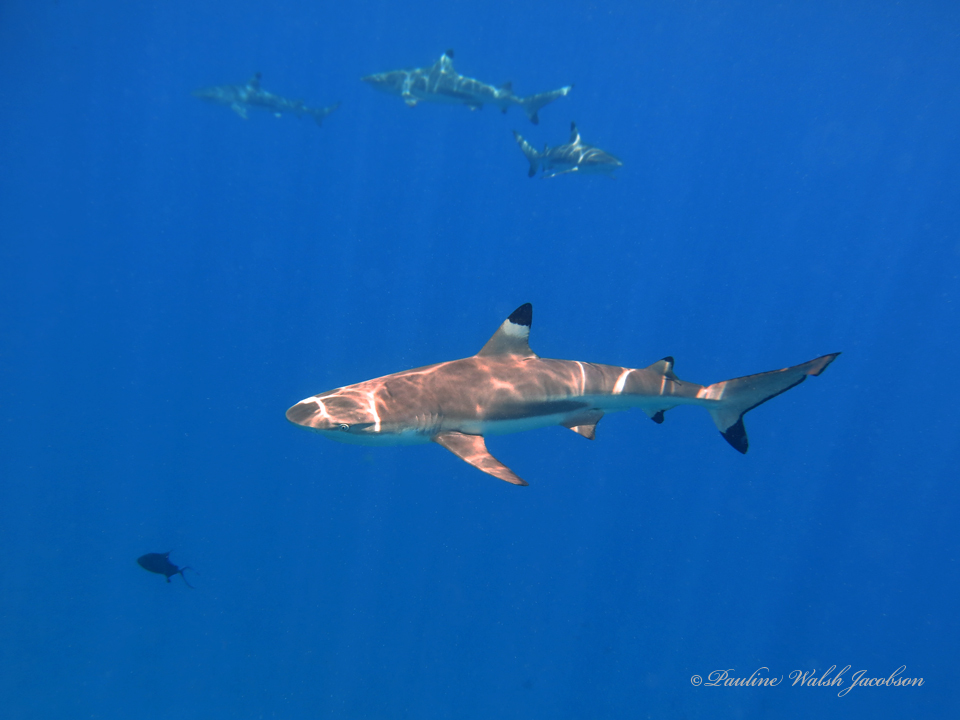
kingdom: Animalia
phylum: Chordata
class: Elasmobranchii
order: Carcharhiniformes
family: Carcharhinidae
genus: Carcharhinus
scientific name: Carcharhinus melanopterus
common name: Blacktip reef shark
